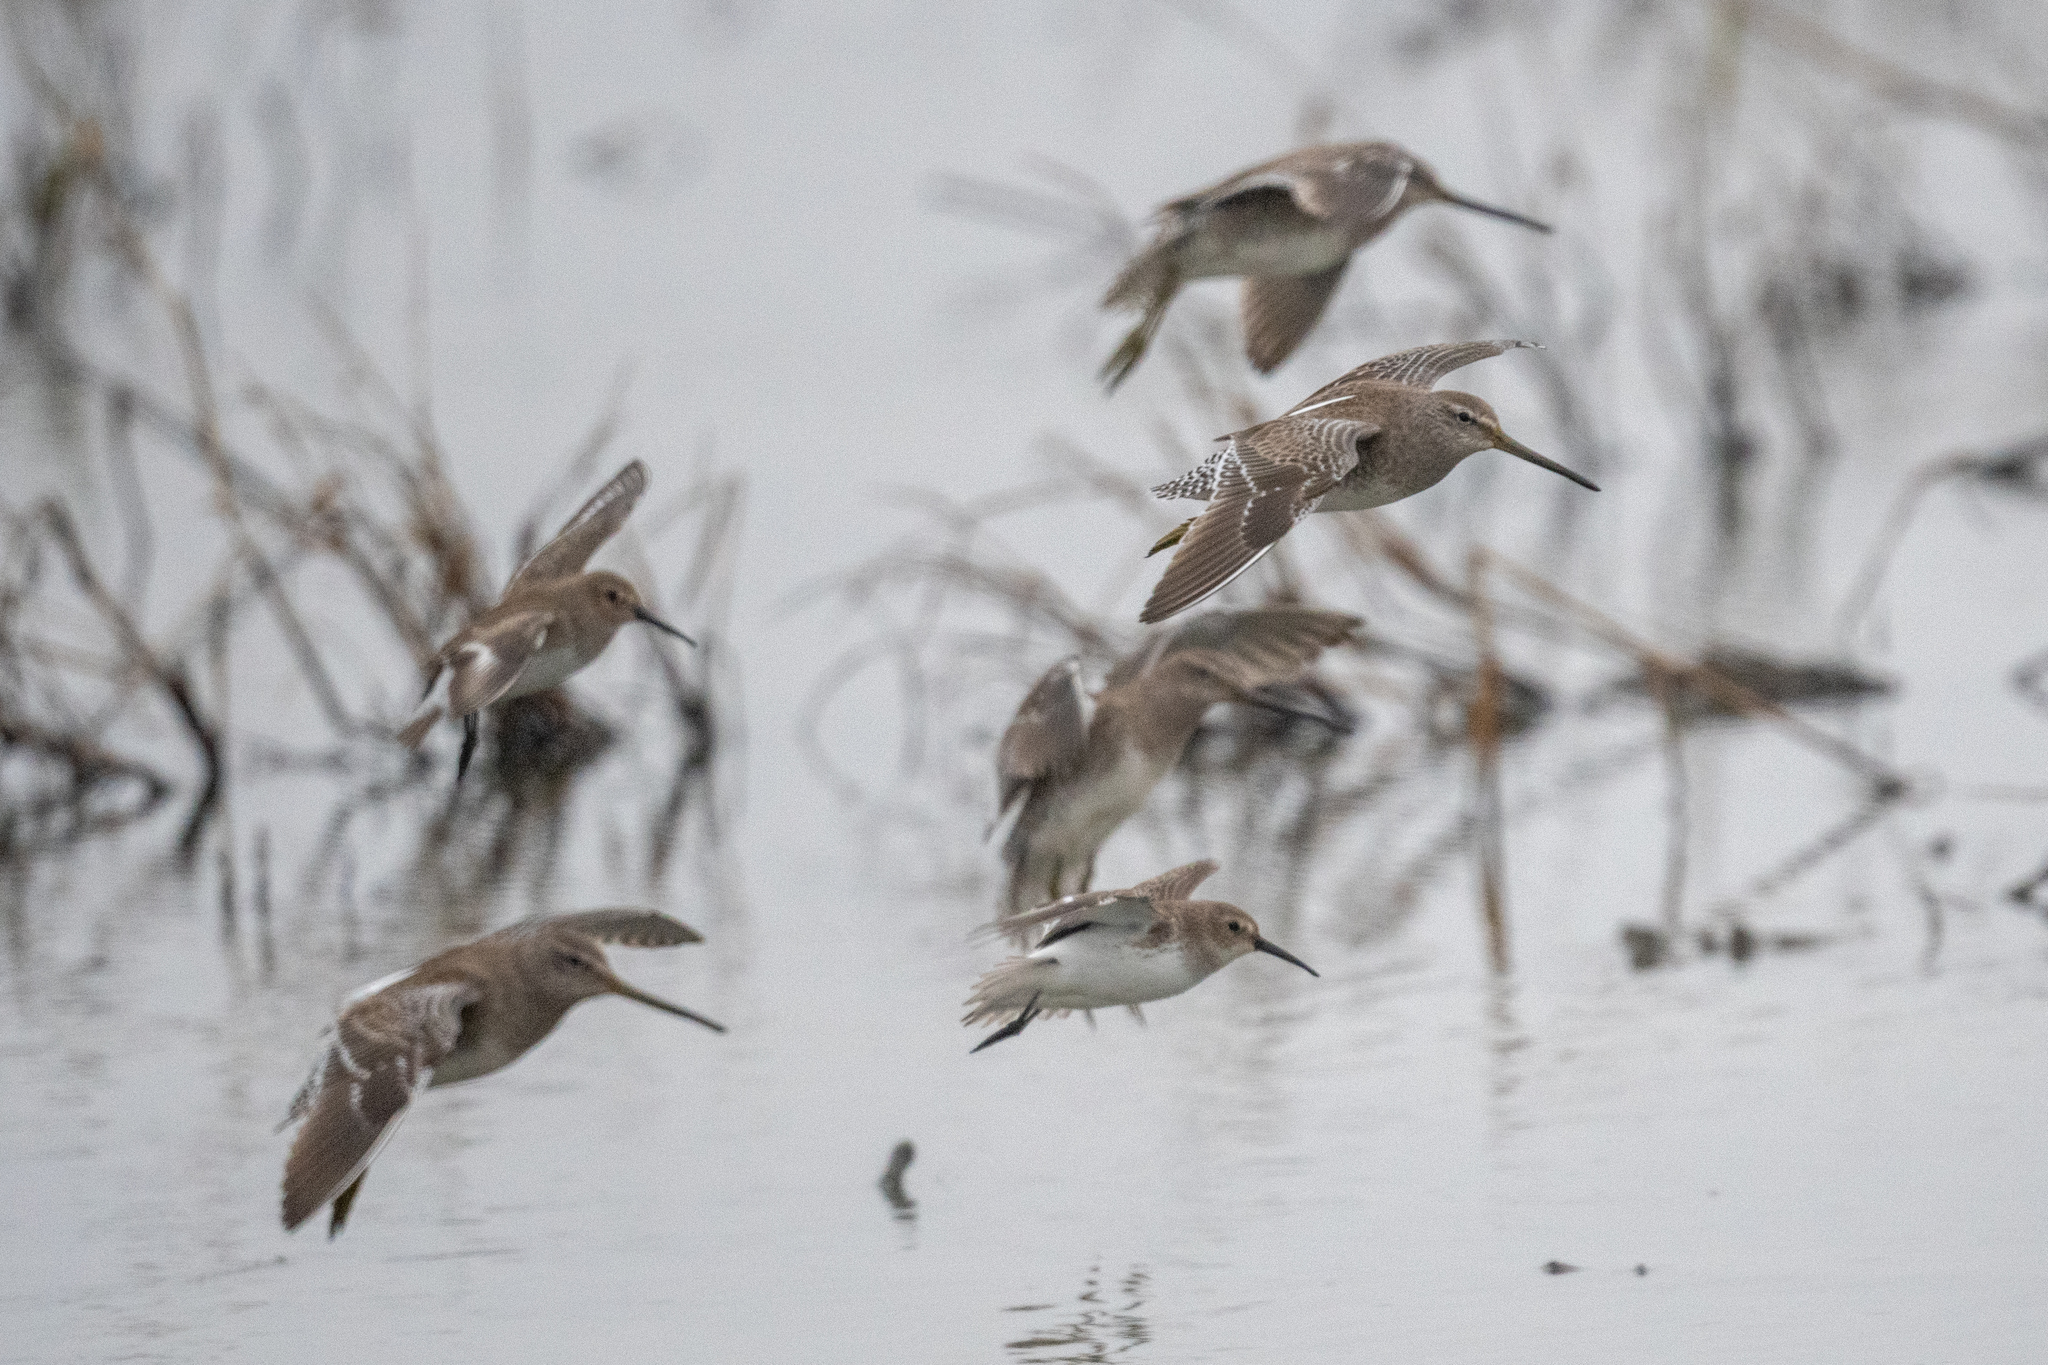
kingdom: Animalia
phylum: Chordata
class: Aves
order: Charadriiformes
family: Scolopacidae
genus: Limnodromus
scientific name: Limnodromus scolopaceus
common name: Long-billed dowitcher
